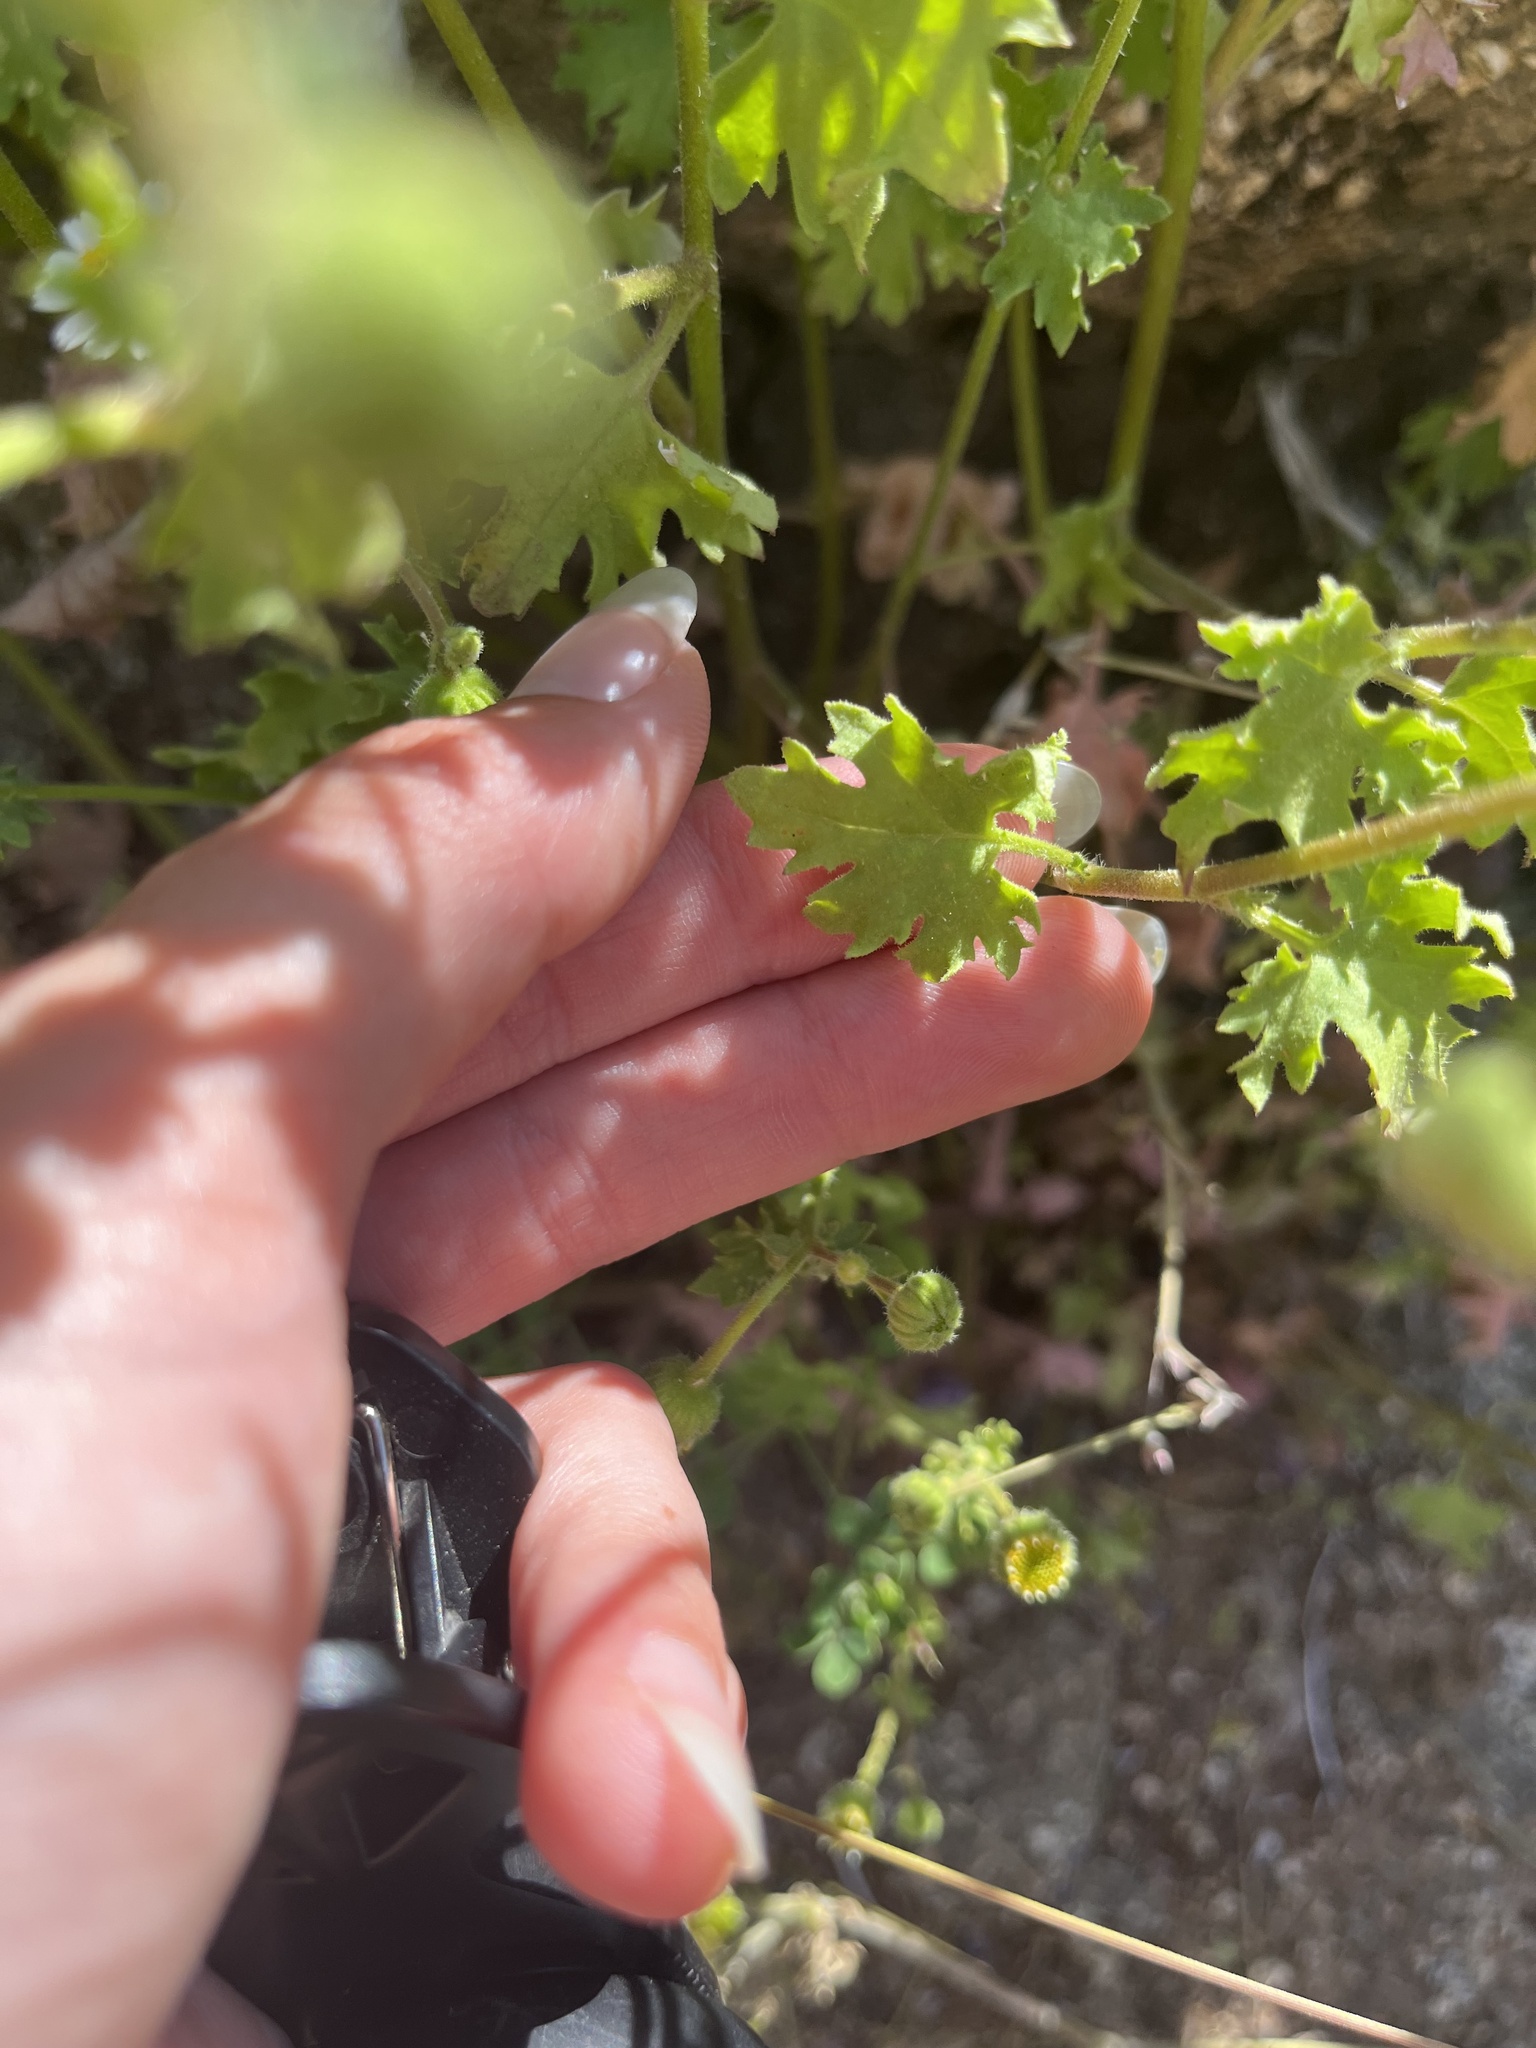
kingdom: Plantae
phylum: Tracheophyta
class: Magnoliopsida
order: Asterales
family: Asteraceae
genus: Laphamia
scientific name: Laphamia emoryi
